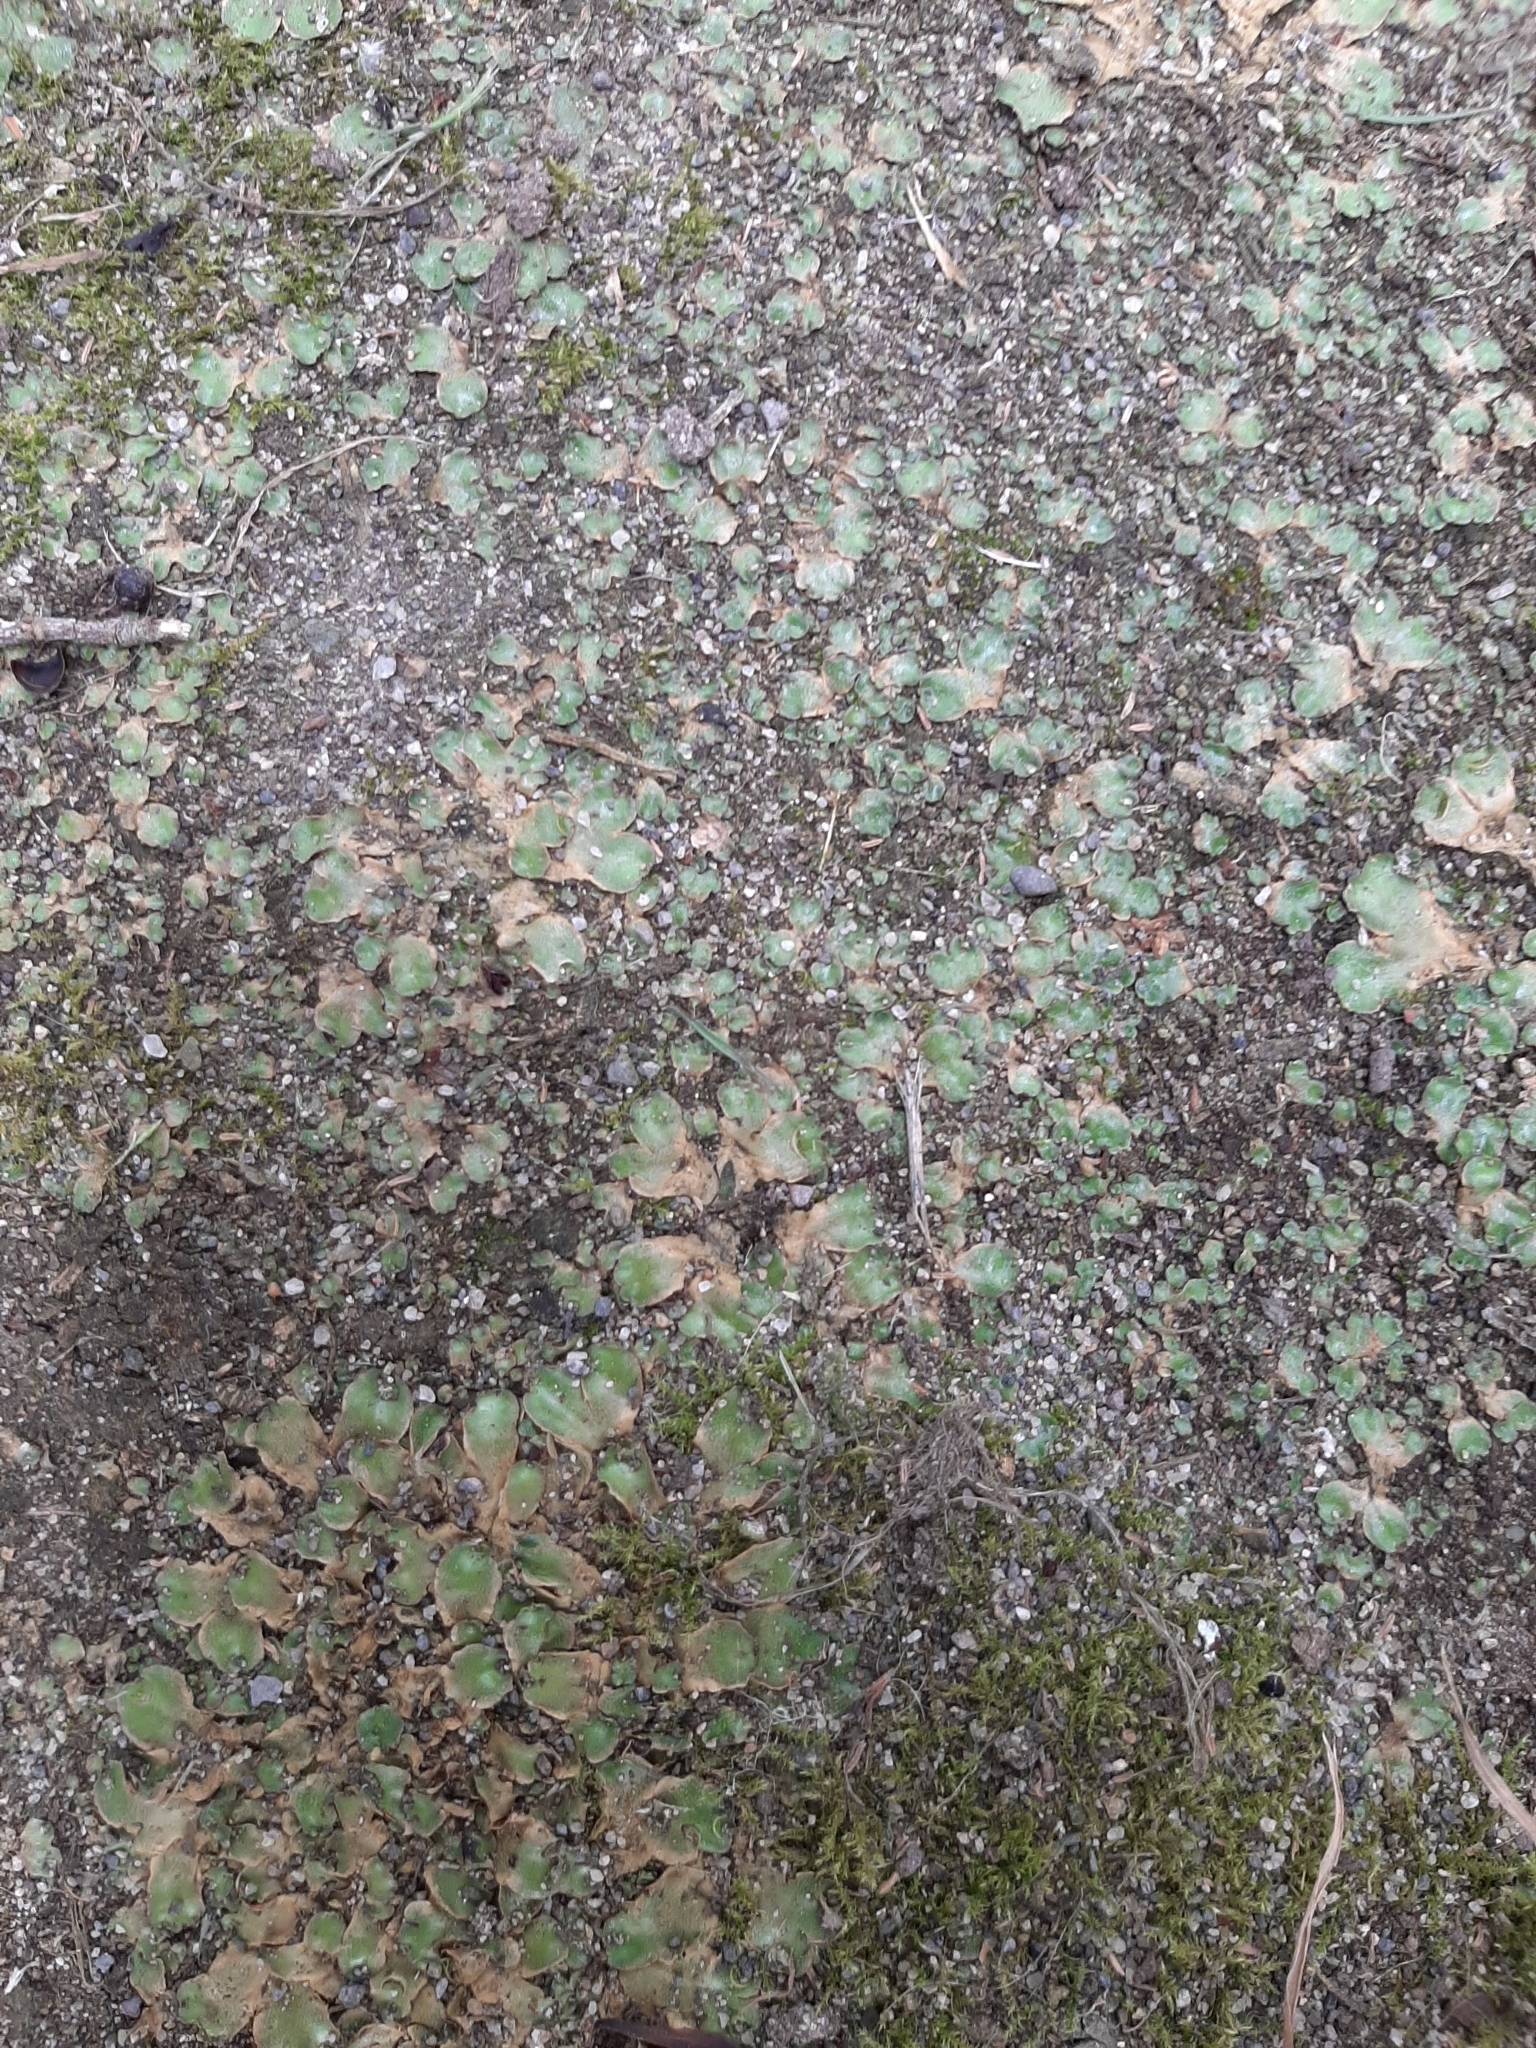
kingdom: Plantae
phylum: Marchantiophyta
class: Marchantiopsida
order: Lunulariales
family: Lunulariaceae
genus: Lunularia
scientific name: Lunularia cruciata
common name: Crescent-cup liverwort
